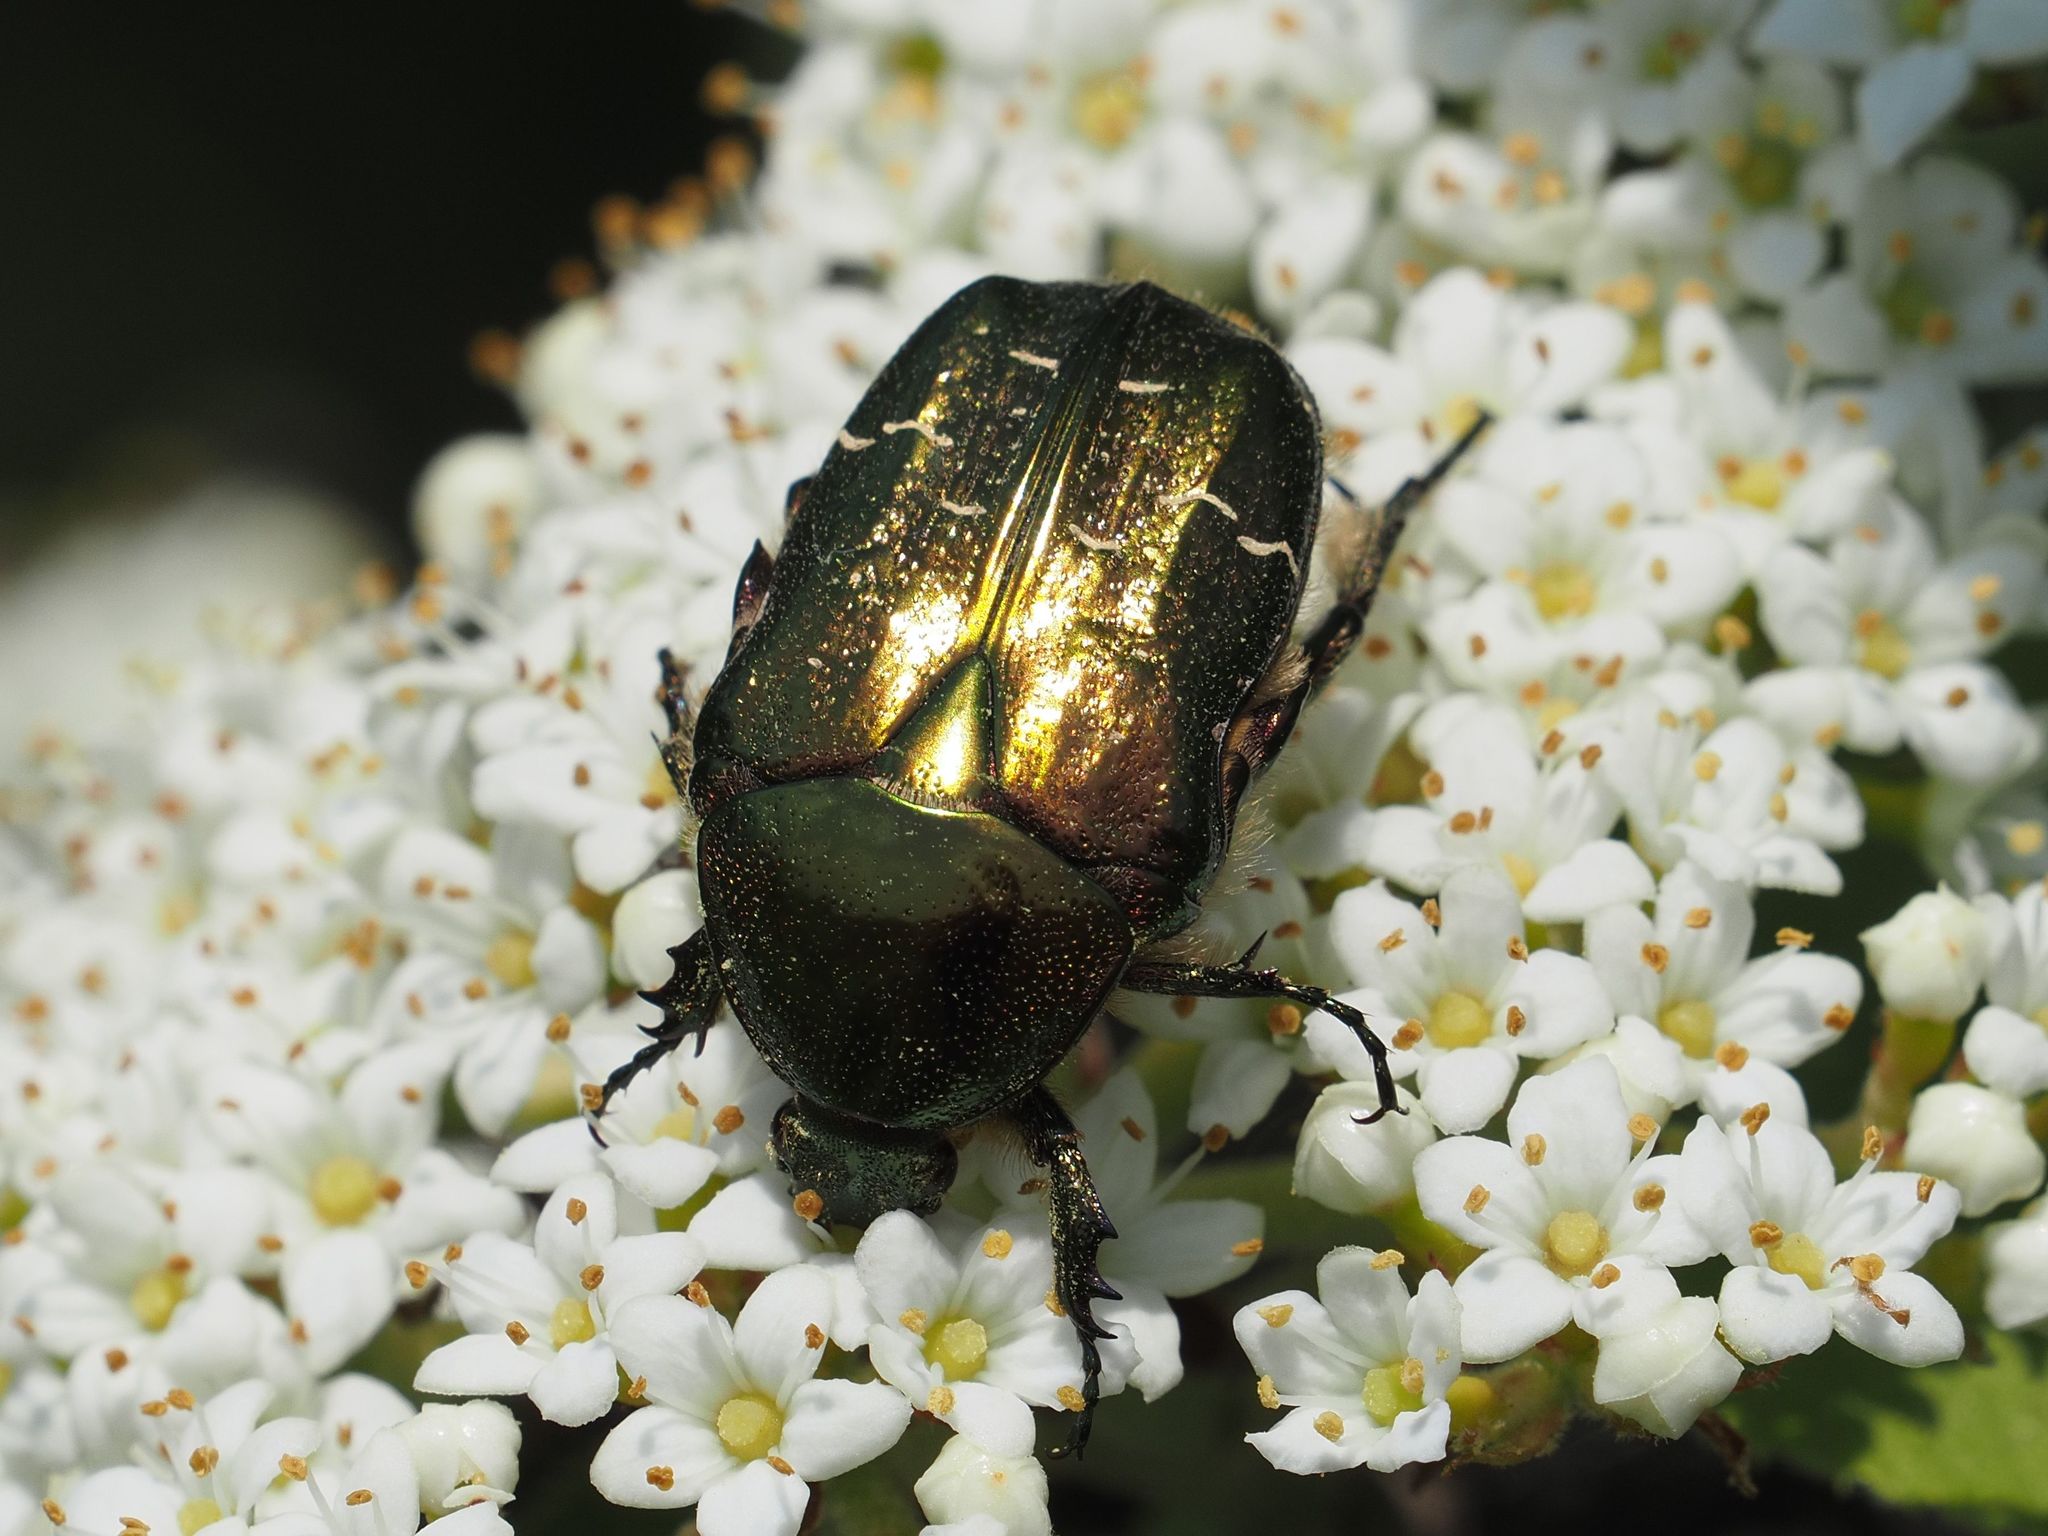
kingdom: Animalia
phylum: Arthropoda
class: Insecta
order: Coleoptera
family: Scarabaeidae
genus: Cetonia
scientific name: Cetonia aurata
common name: Rose chafer
